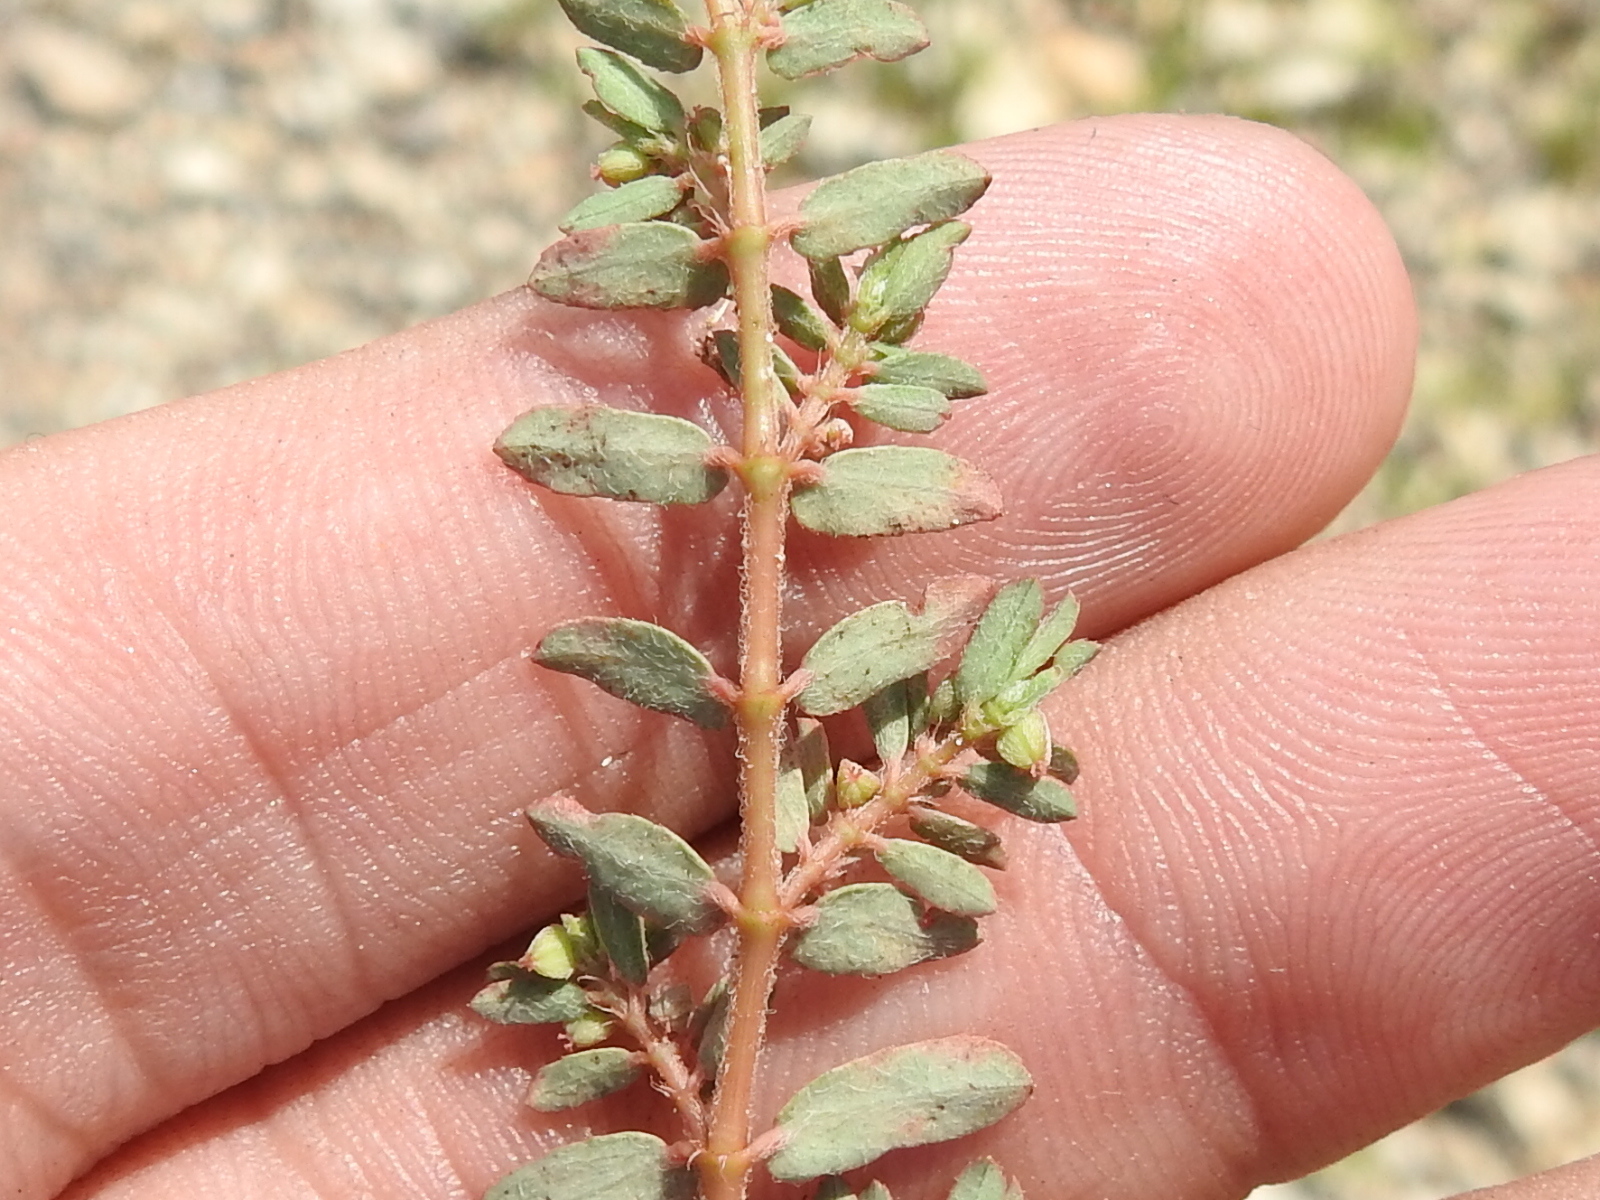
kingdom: Plantae
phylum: Tracheophyta
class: Magnoliopsida
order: Malpighiales
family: Euphorbiaceae
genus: Euphorbia
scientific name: Euphorbia maculata
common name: Spotted spurge
